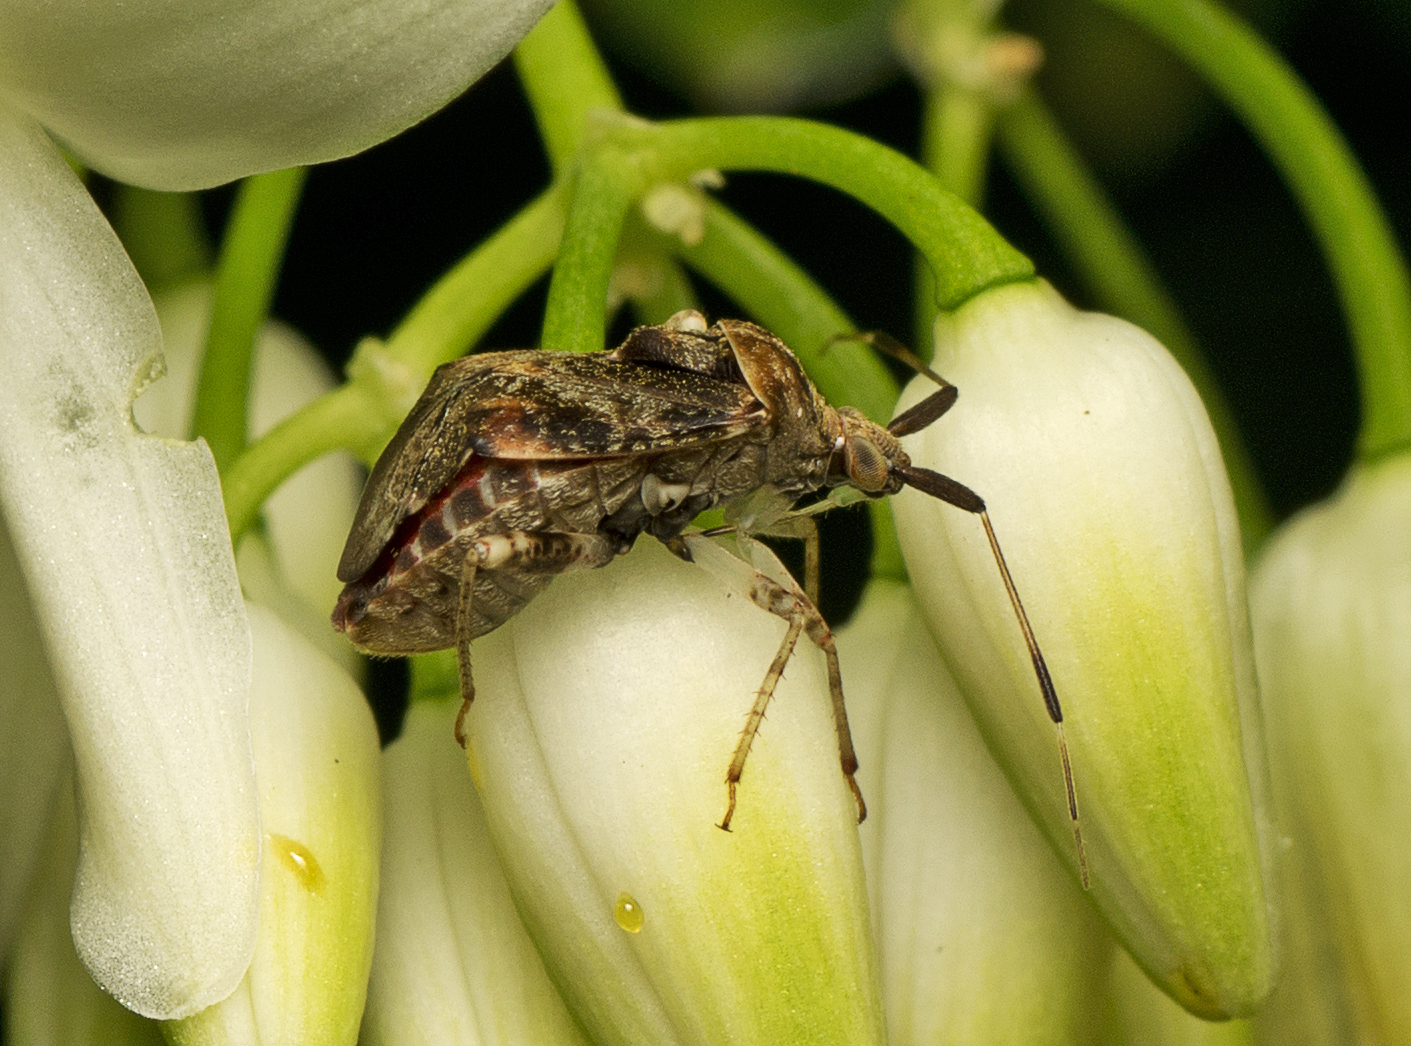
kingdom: Animalia
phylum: Arthropoda
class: Insecta
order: Hemiptera
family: Miridae
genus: Sidnia
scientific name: Sidnia kinbergi
